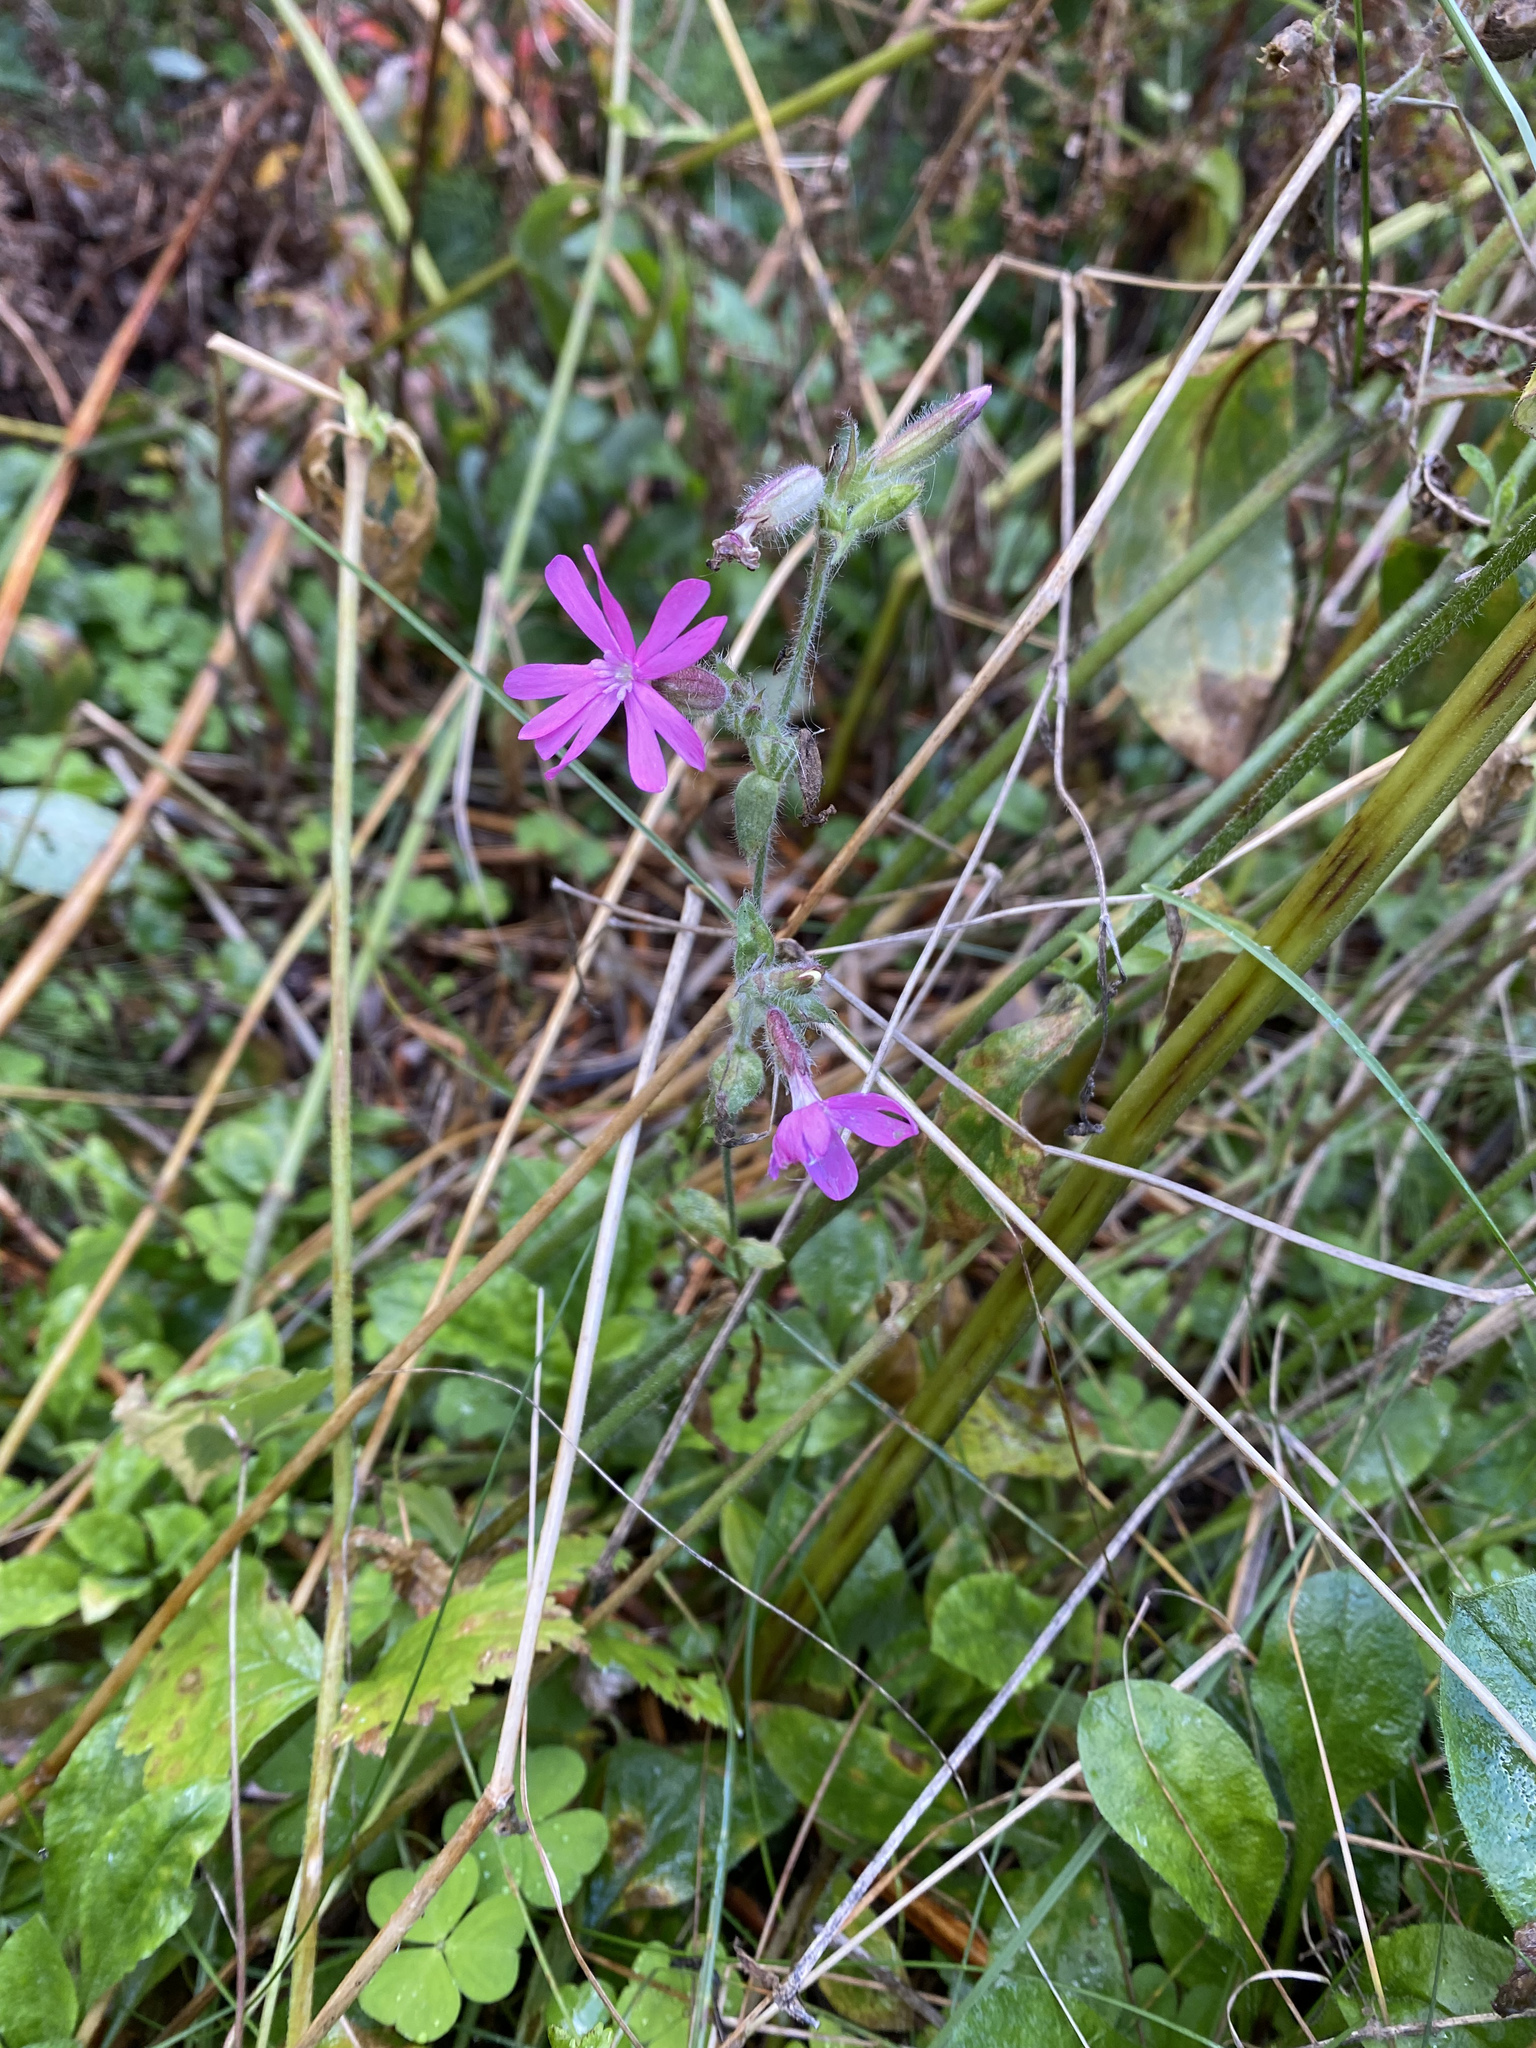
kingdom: Plantae
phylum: Tracheophyta
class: Magnoliopsida
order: Caryophyllales
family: Caryophyllaceae
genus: Silene
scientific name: Silene dioica
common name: Red campion
